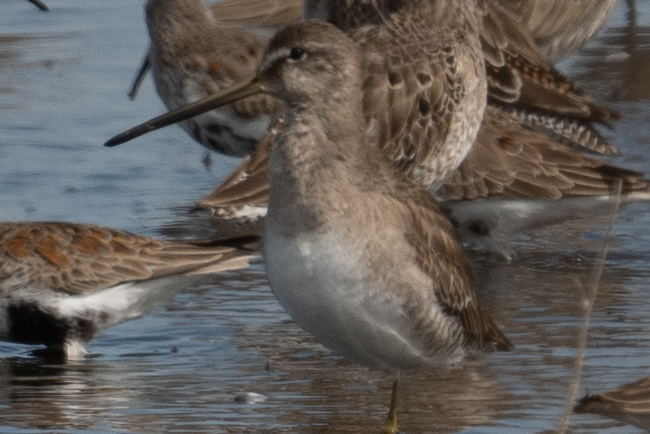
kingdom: Animalia
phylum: Chordata
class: Aves
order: Charadriiformes
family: Scolopacidae
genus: Limnodromus
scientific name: Limnodromus scolopaceus
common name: Long-billed dowitcher
